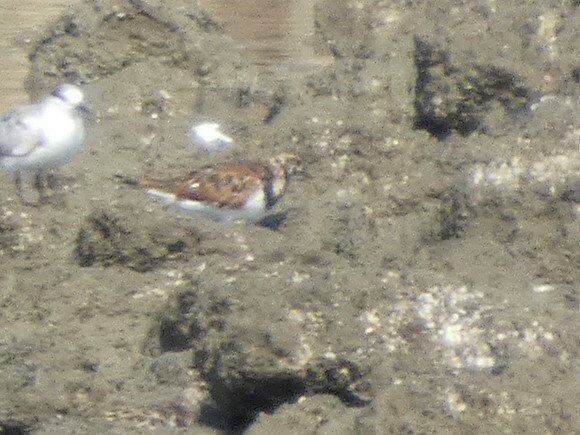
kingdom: Animalia
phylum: Chordata
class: Aves
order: Charadriiformes
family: Scolopacidae
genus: Arenaria
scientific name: Arenaria interpres
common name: Ruddy turnstone
